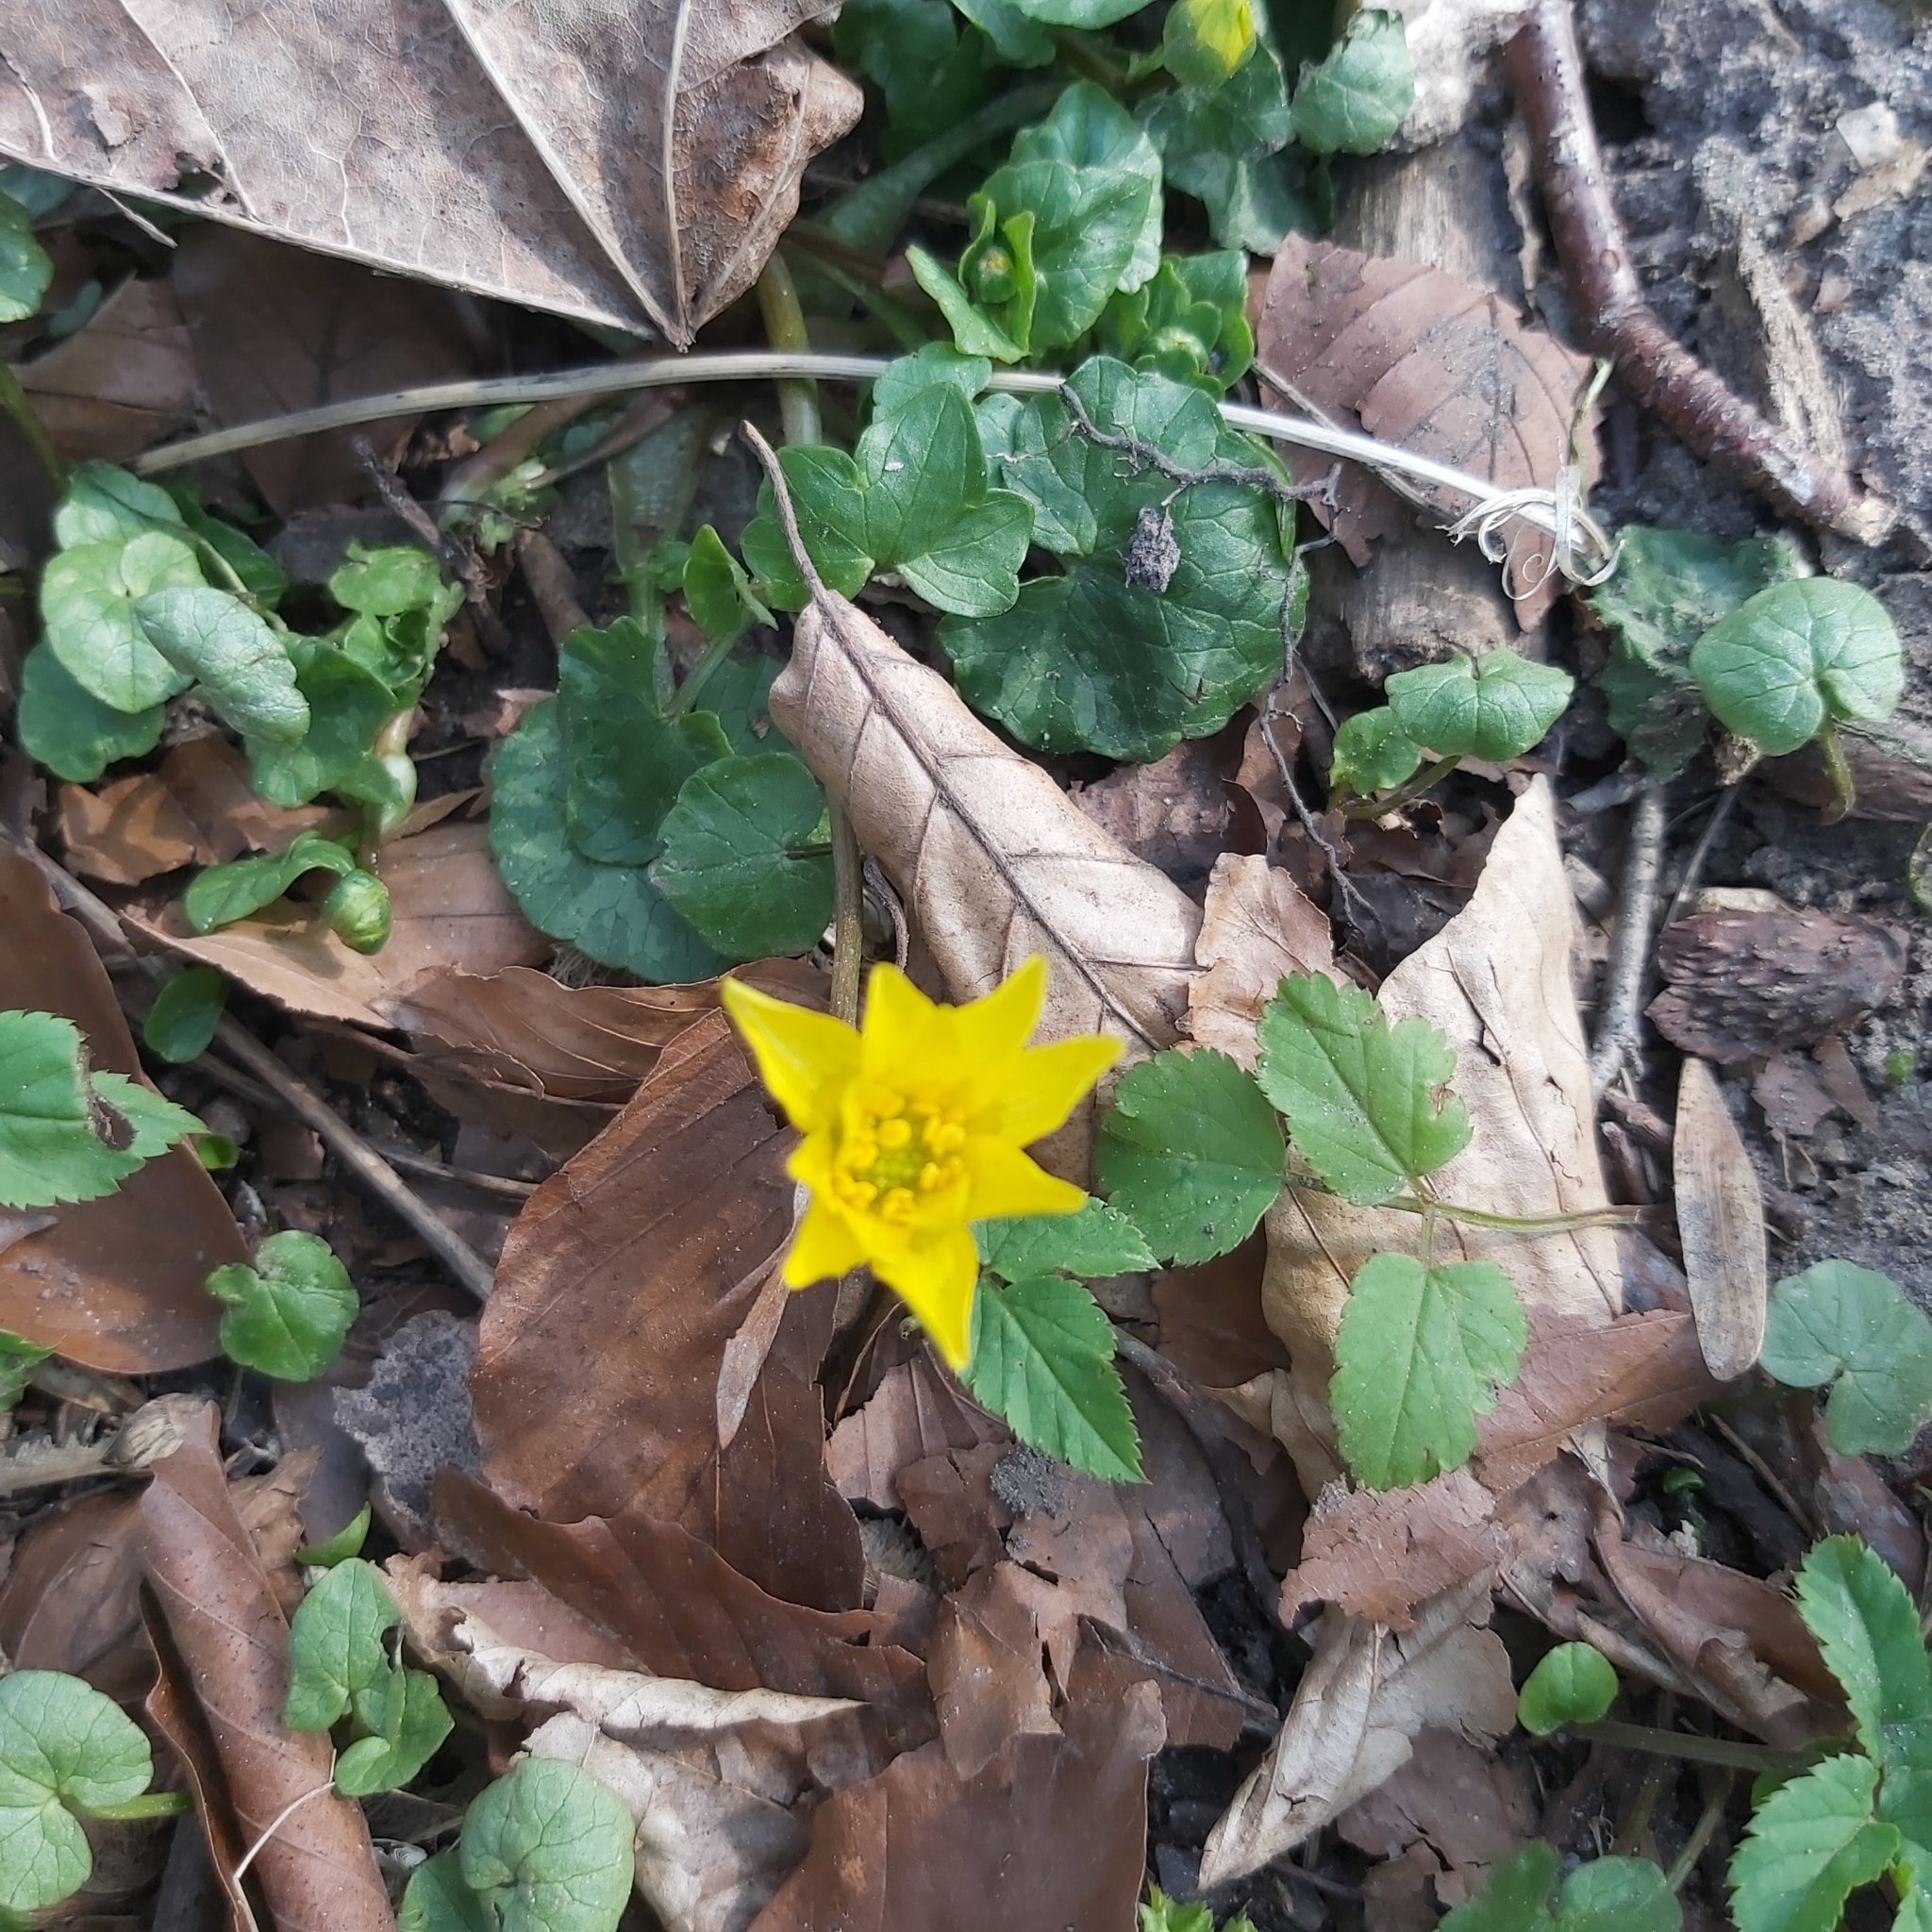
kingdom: Plantae
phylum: Tracheophyta
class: Magnoliopsida
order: Ranunculales
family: Ranunculaceae
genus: Ficaria
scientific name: Ficaria verna
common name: Lesser celandine
